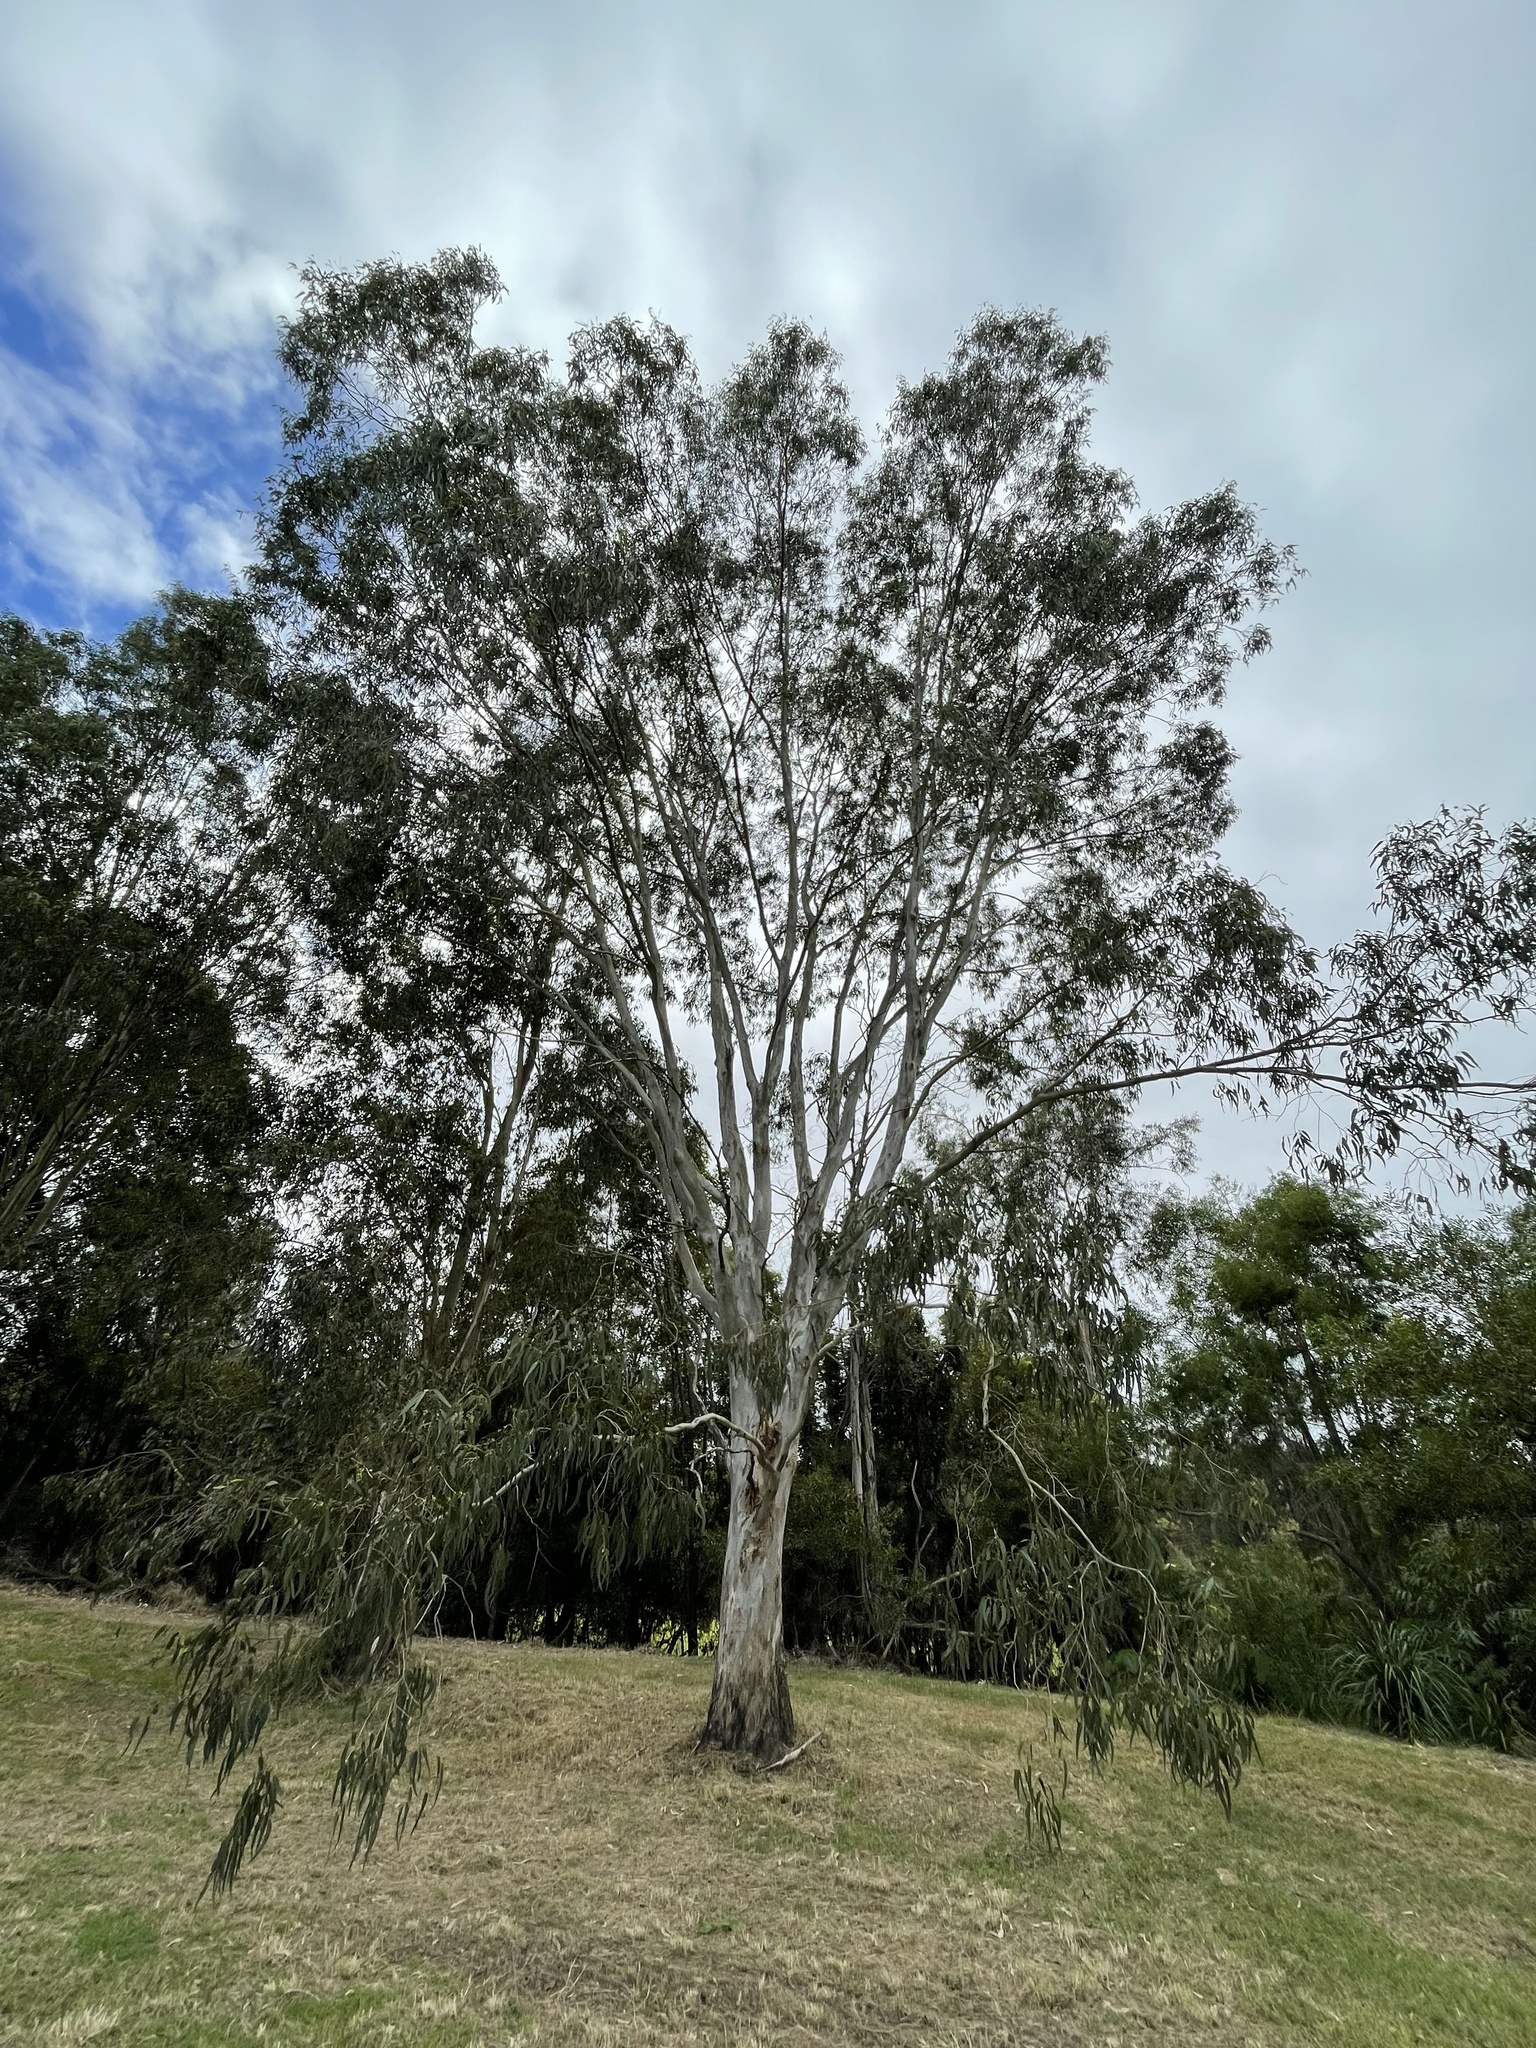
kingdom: Plantae
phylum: Tracheophyta
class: Magnoliopsida
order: Myrtales
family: Myrtaceae
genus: Eucalyptus
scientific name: Eucalyptus tereticornis
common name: Forest redgum
